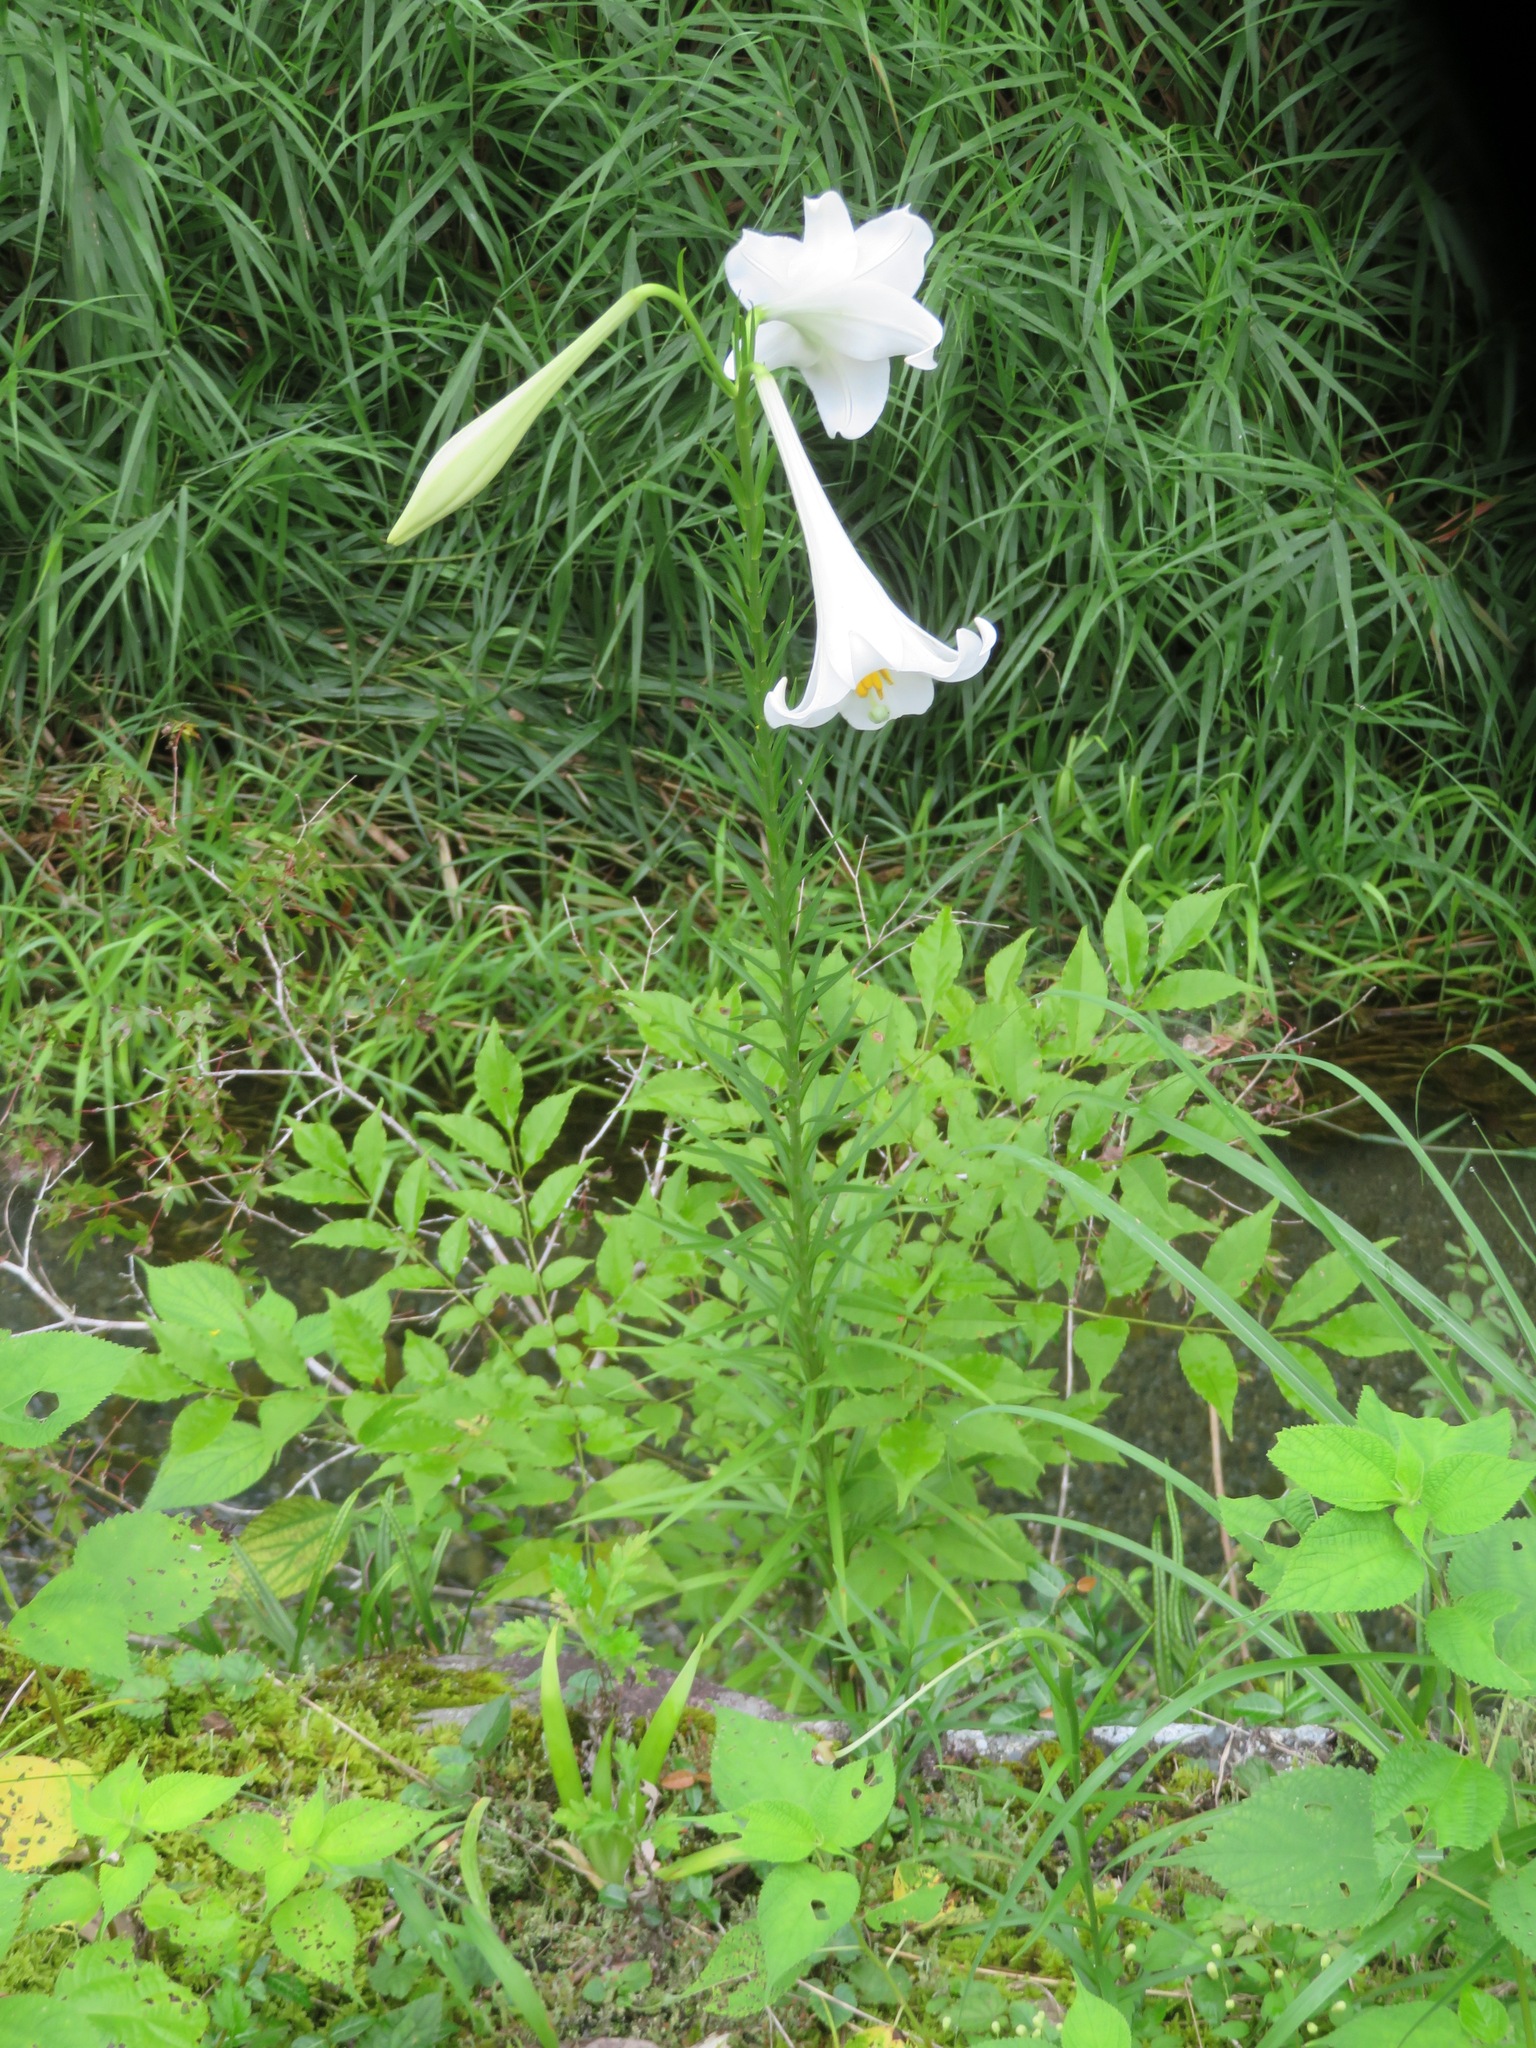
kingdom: Plantae
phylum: Tracheophyta
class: Liliopsida
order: Liliales
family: Liliaceae
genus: Lilium
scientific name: Lilium formosanum
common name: Formosa lily
